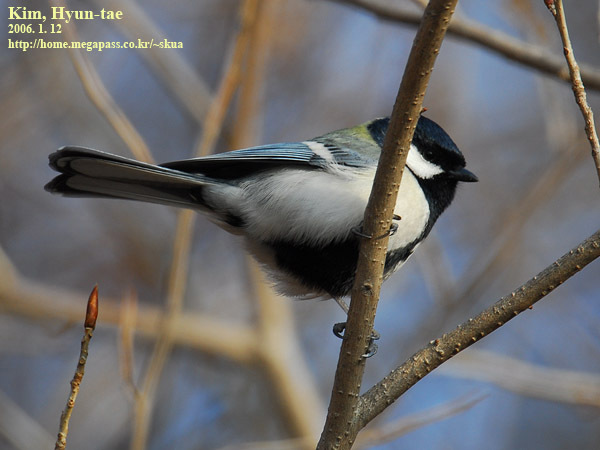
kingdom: Animalia
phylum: Chordata
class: Aves
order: Passeriformes
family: Paridae
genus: Parus
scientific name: Parus minor
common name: Japanese tit
